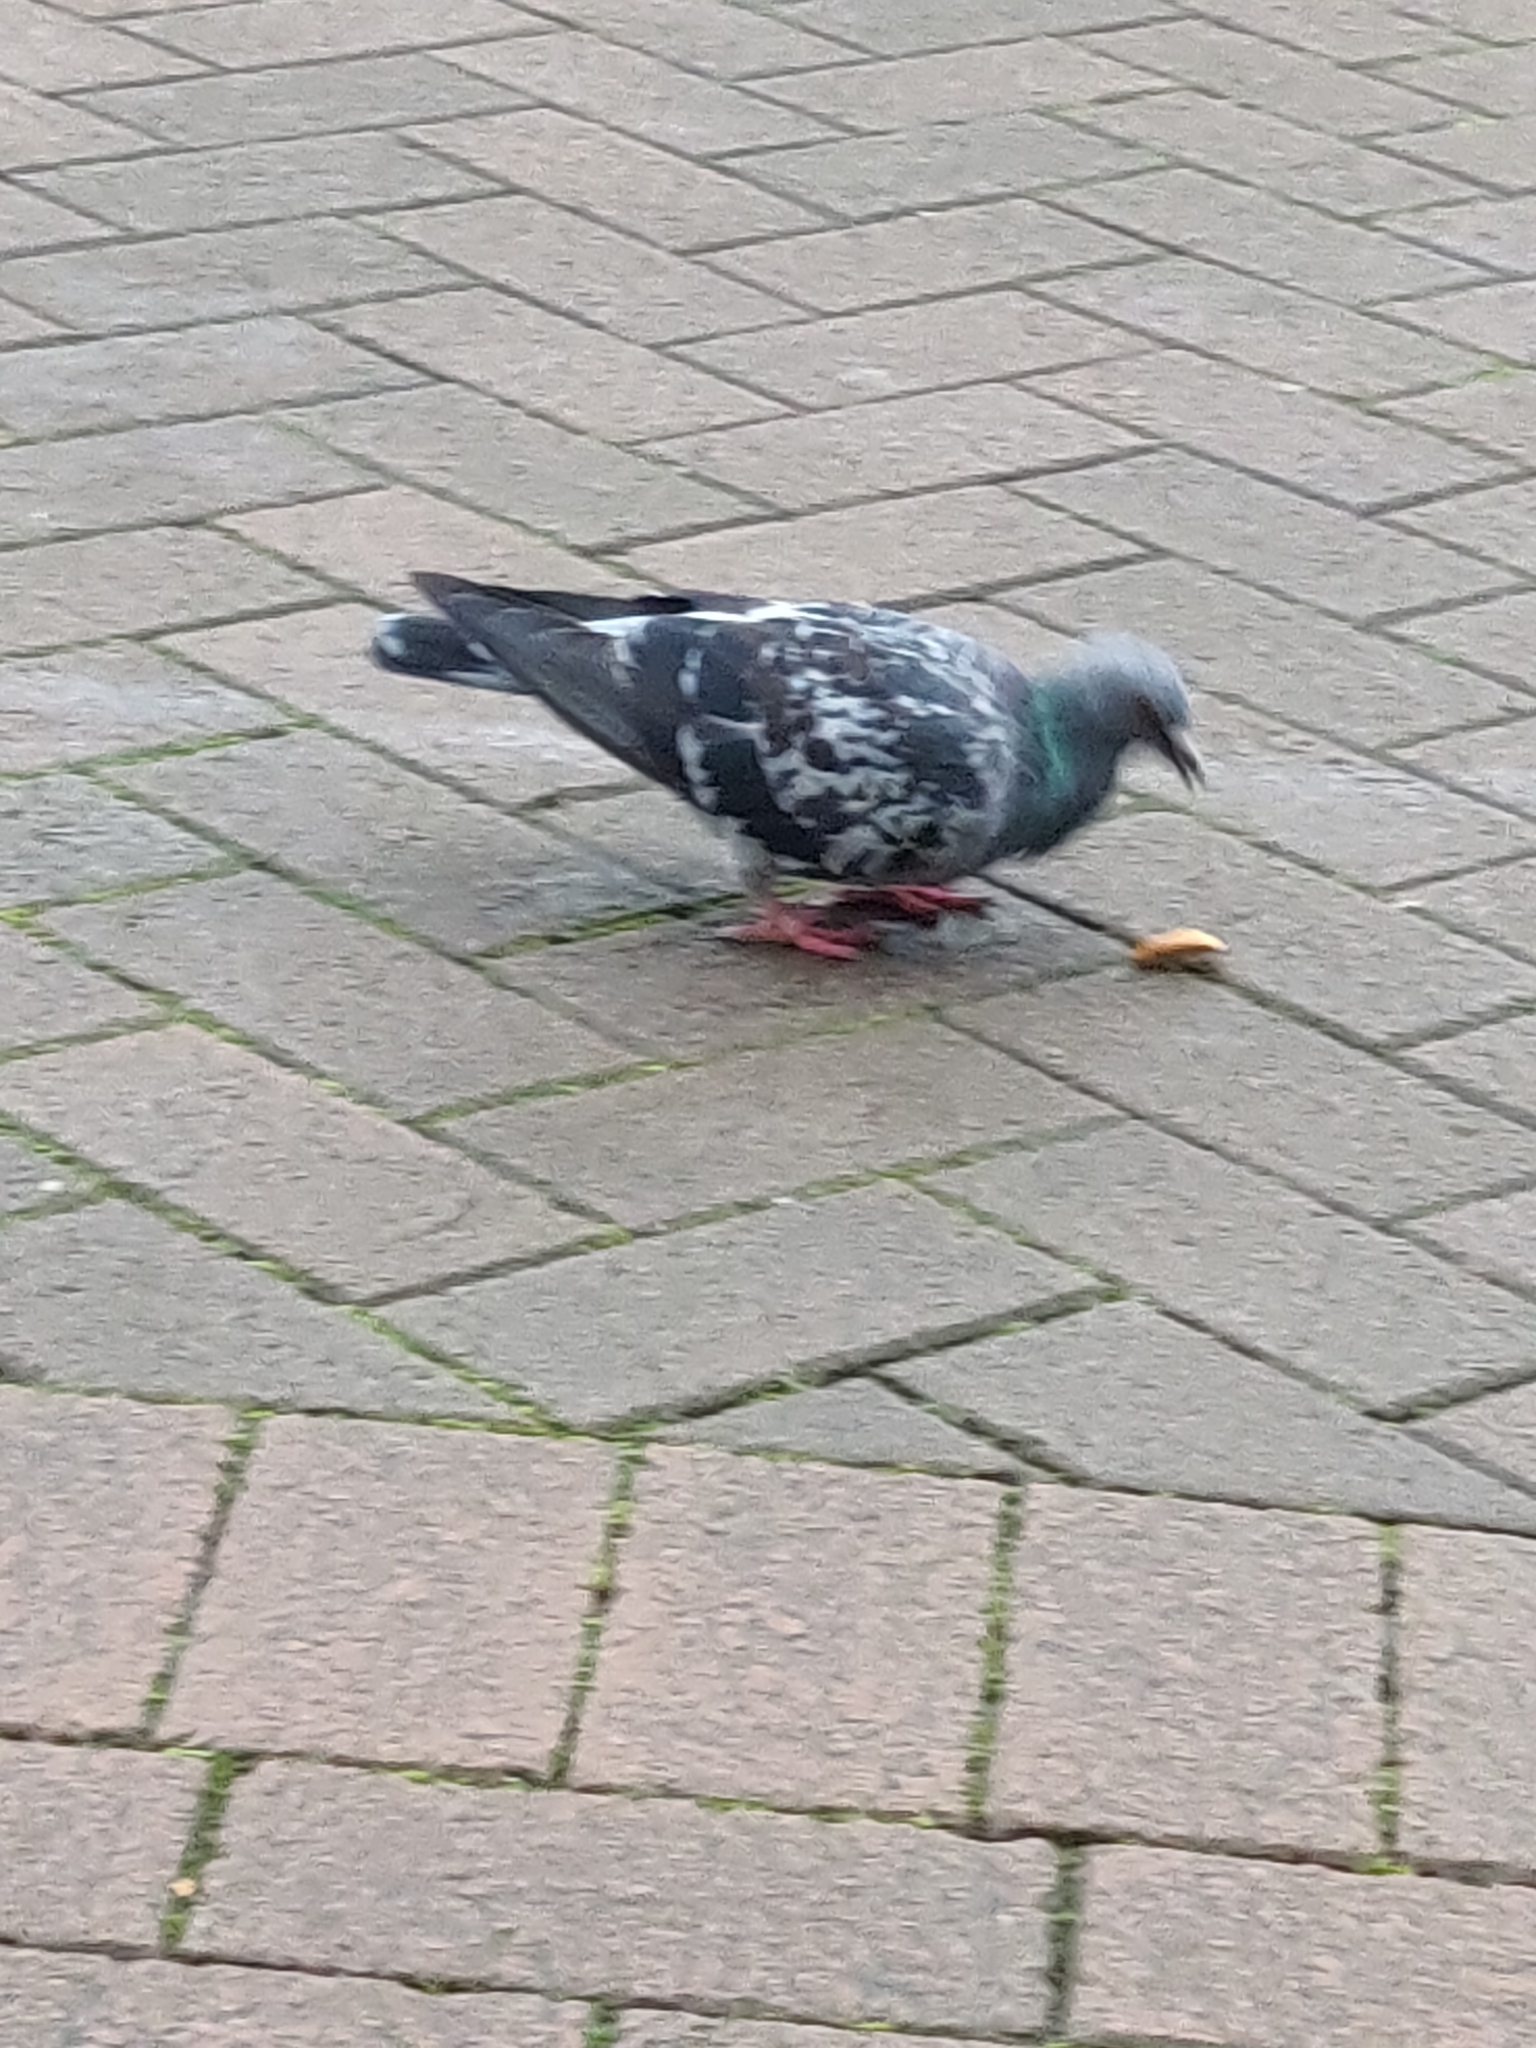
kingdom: Animalia
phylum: Chordata
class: Aves
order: Columbiformes
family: Columbidae
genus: Columba
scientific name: Columba livia
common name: Rock pigeon
